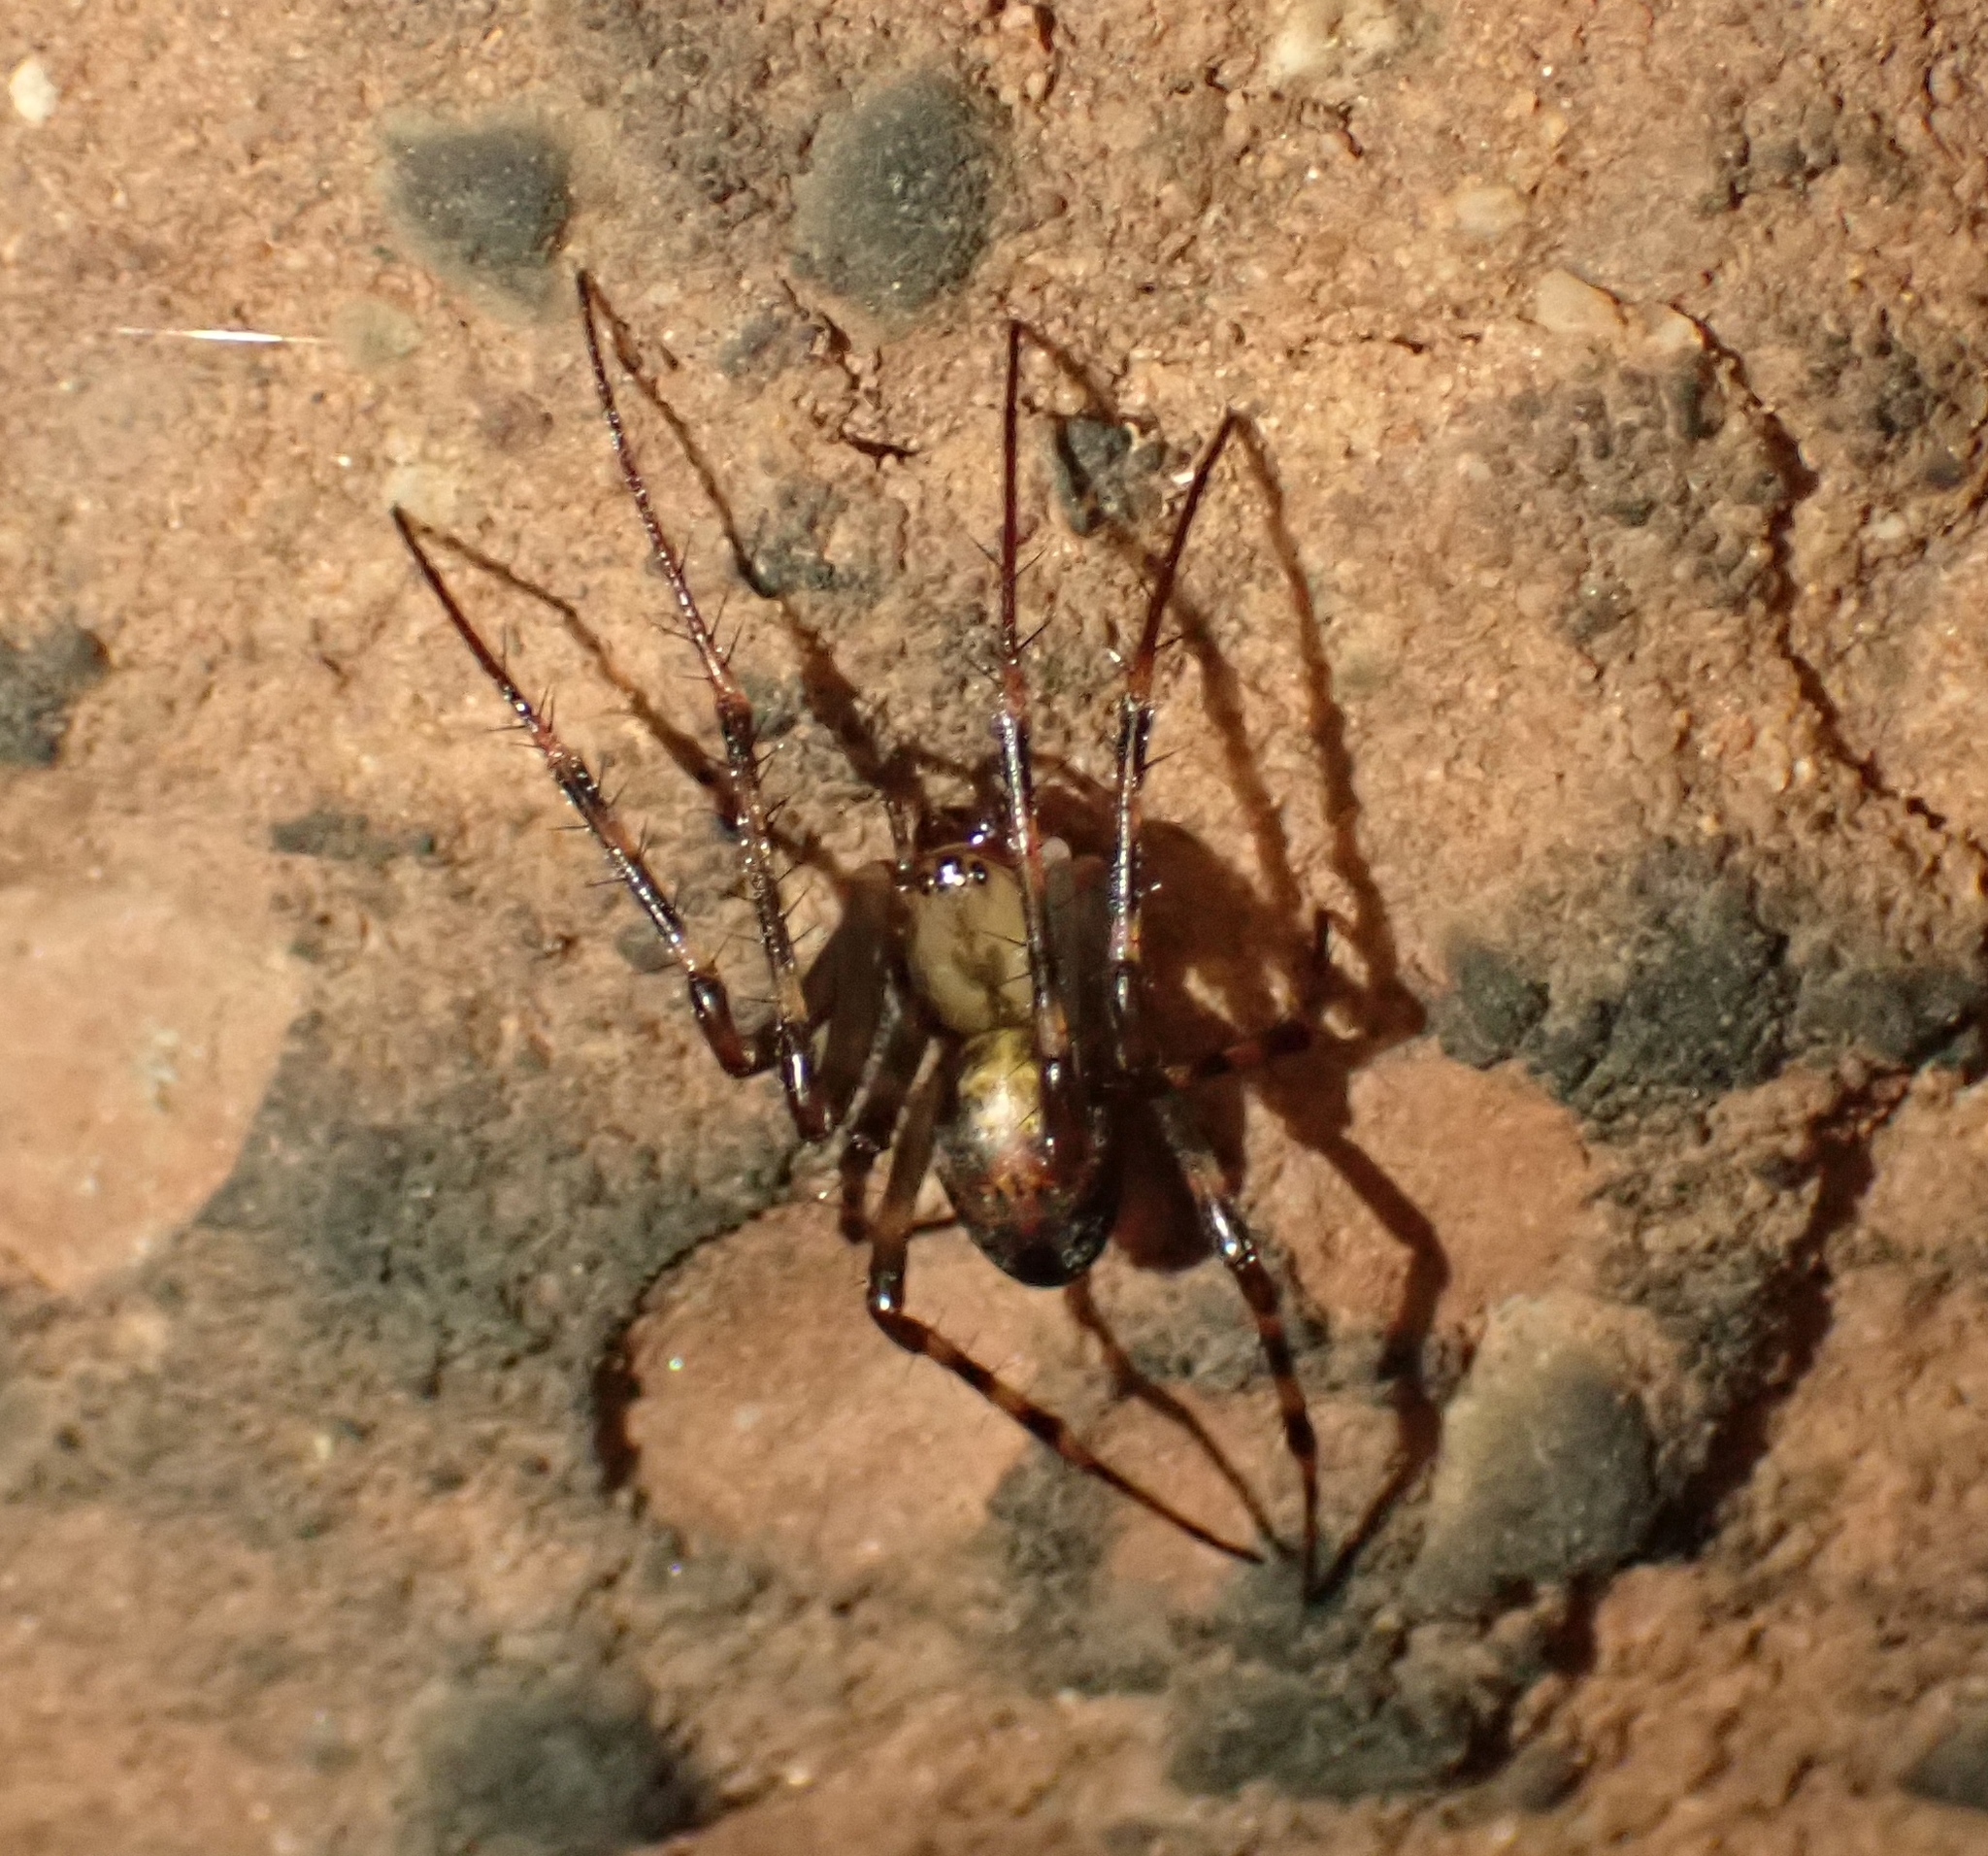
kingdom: Animalia
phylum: Arthropoda
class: Arachnida
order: Araneae
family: Tetragnathidae
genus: Meta
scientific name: Meta menardi
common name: Cave spider
